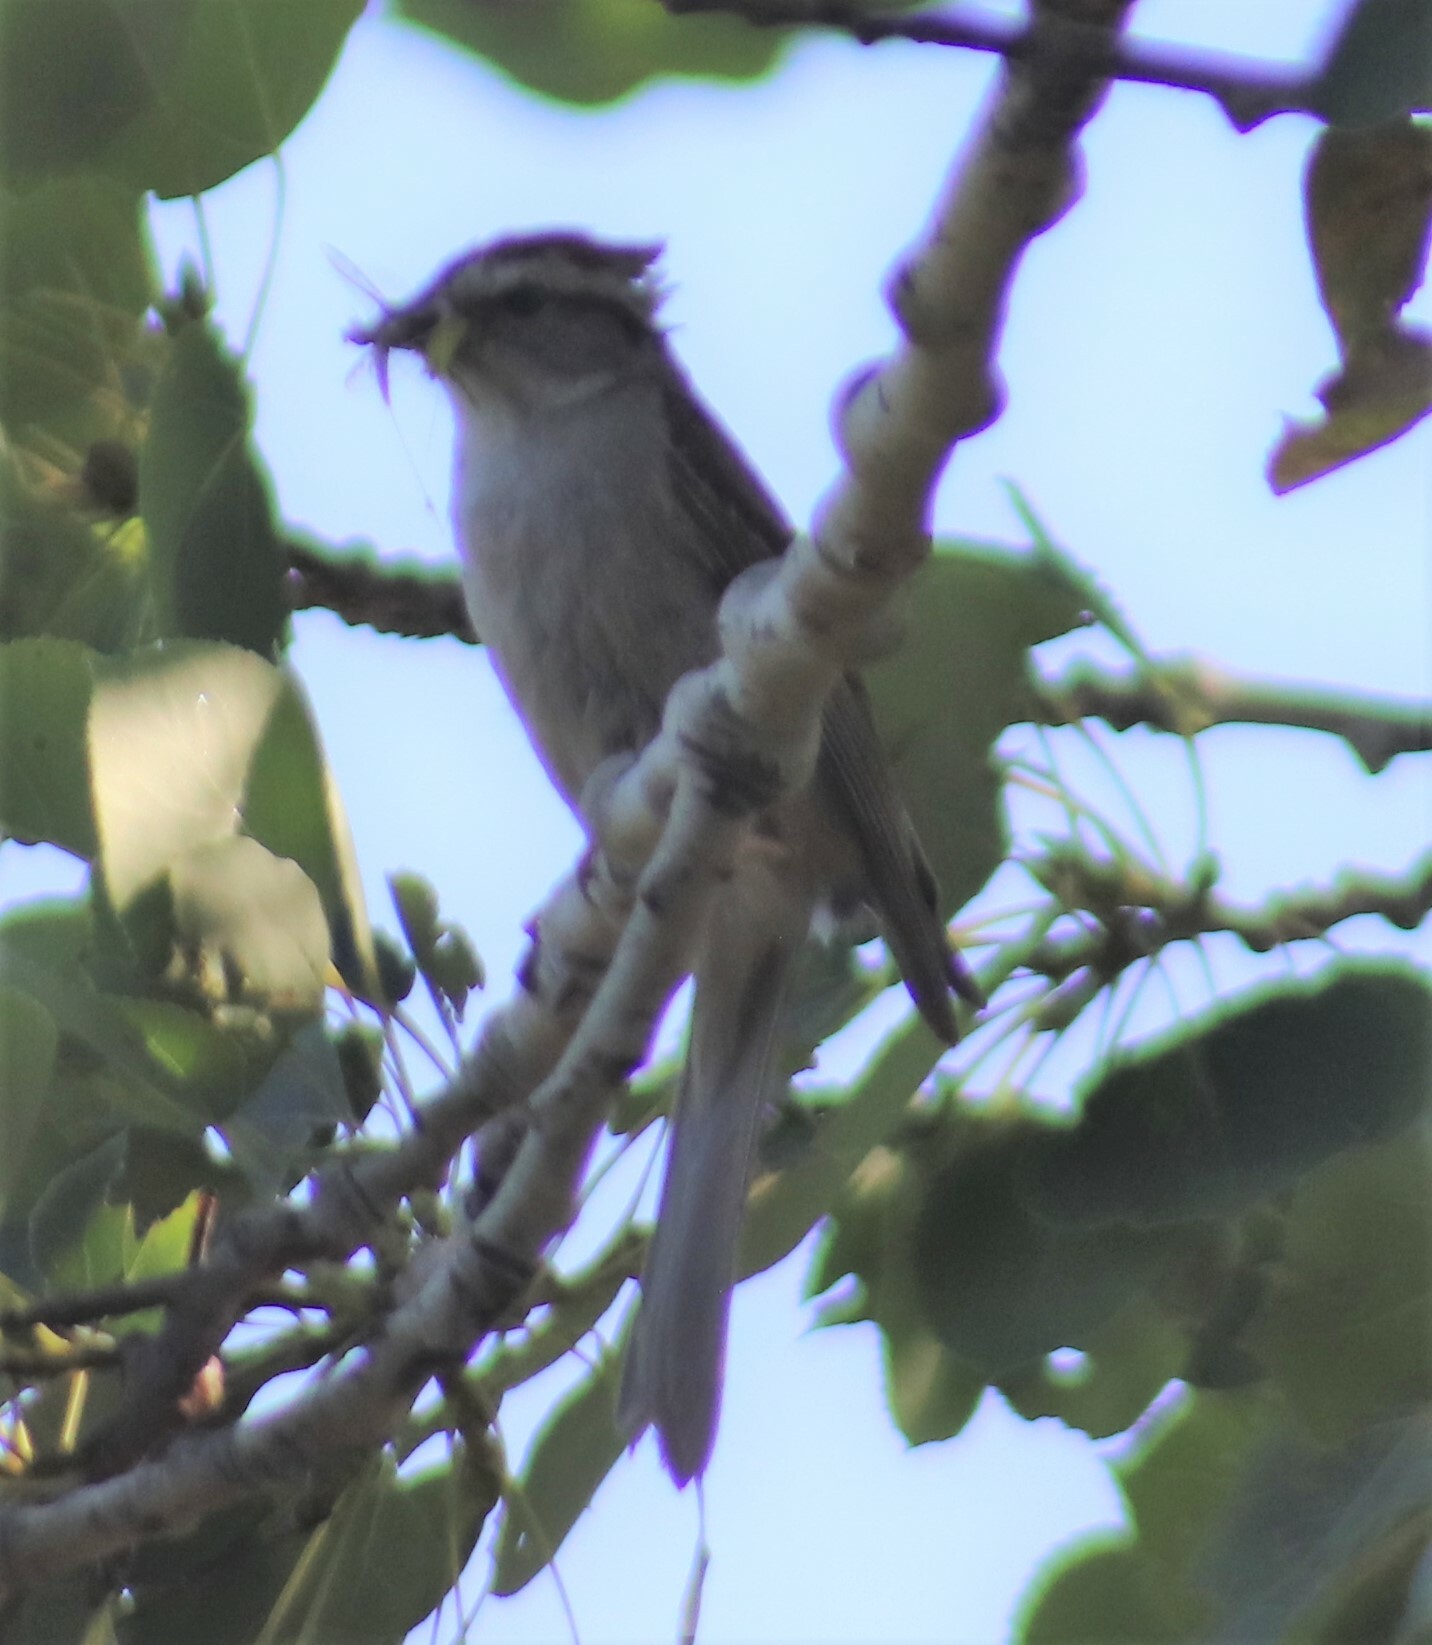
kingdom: Animalia
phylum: Chordata
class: Aves
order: Passeriformes
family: Passerellidae
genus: Spizella
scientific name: Spizella passerina
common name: Chipping sparrow
